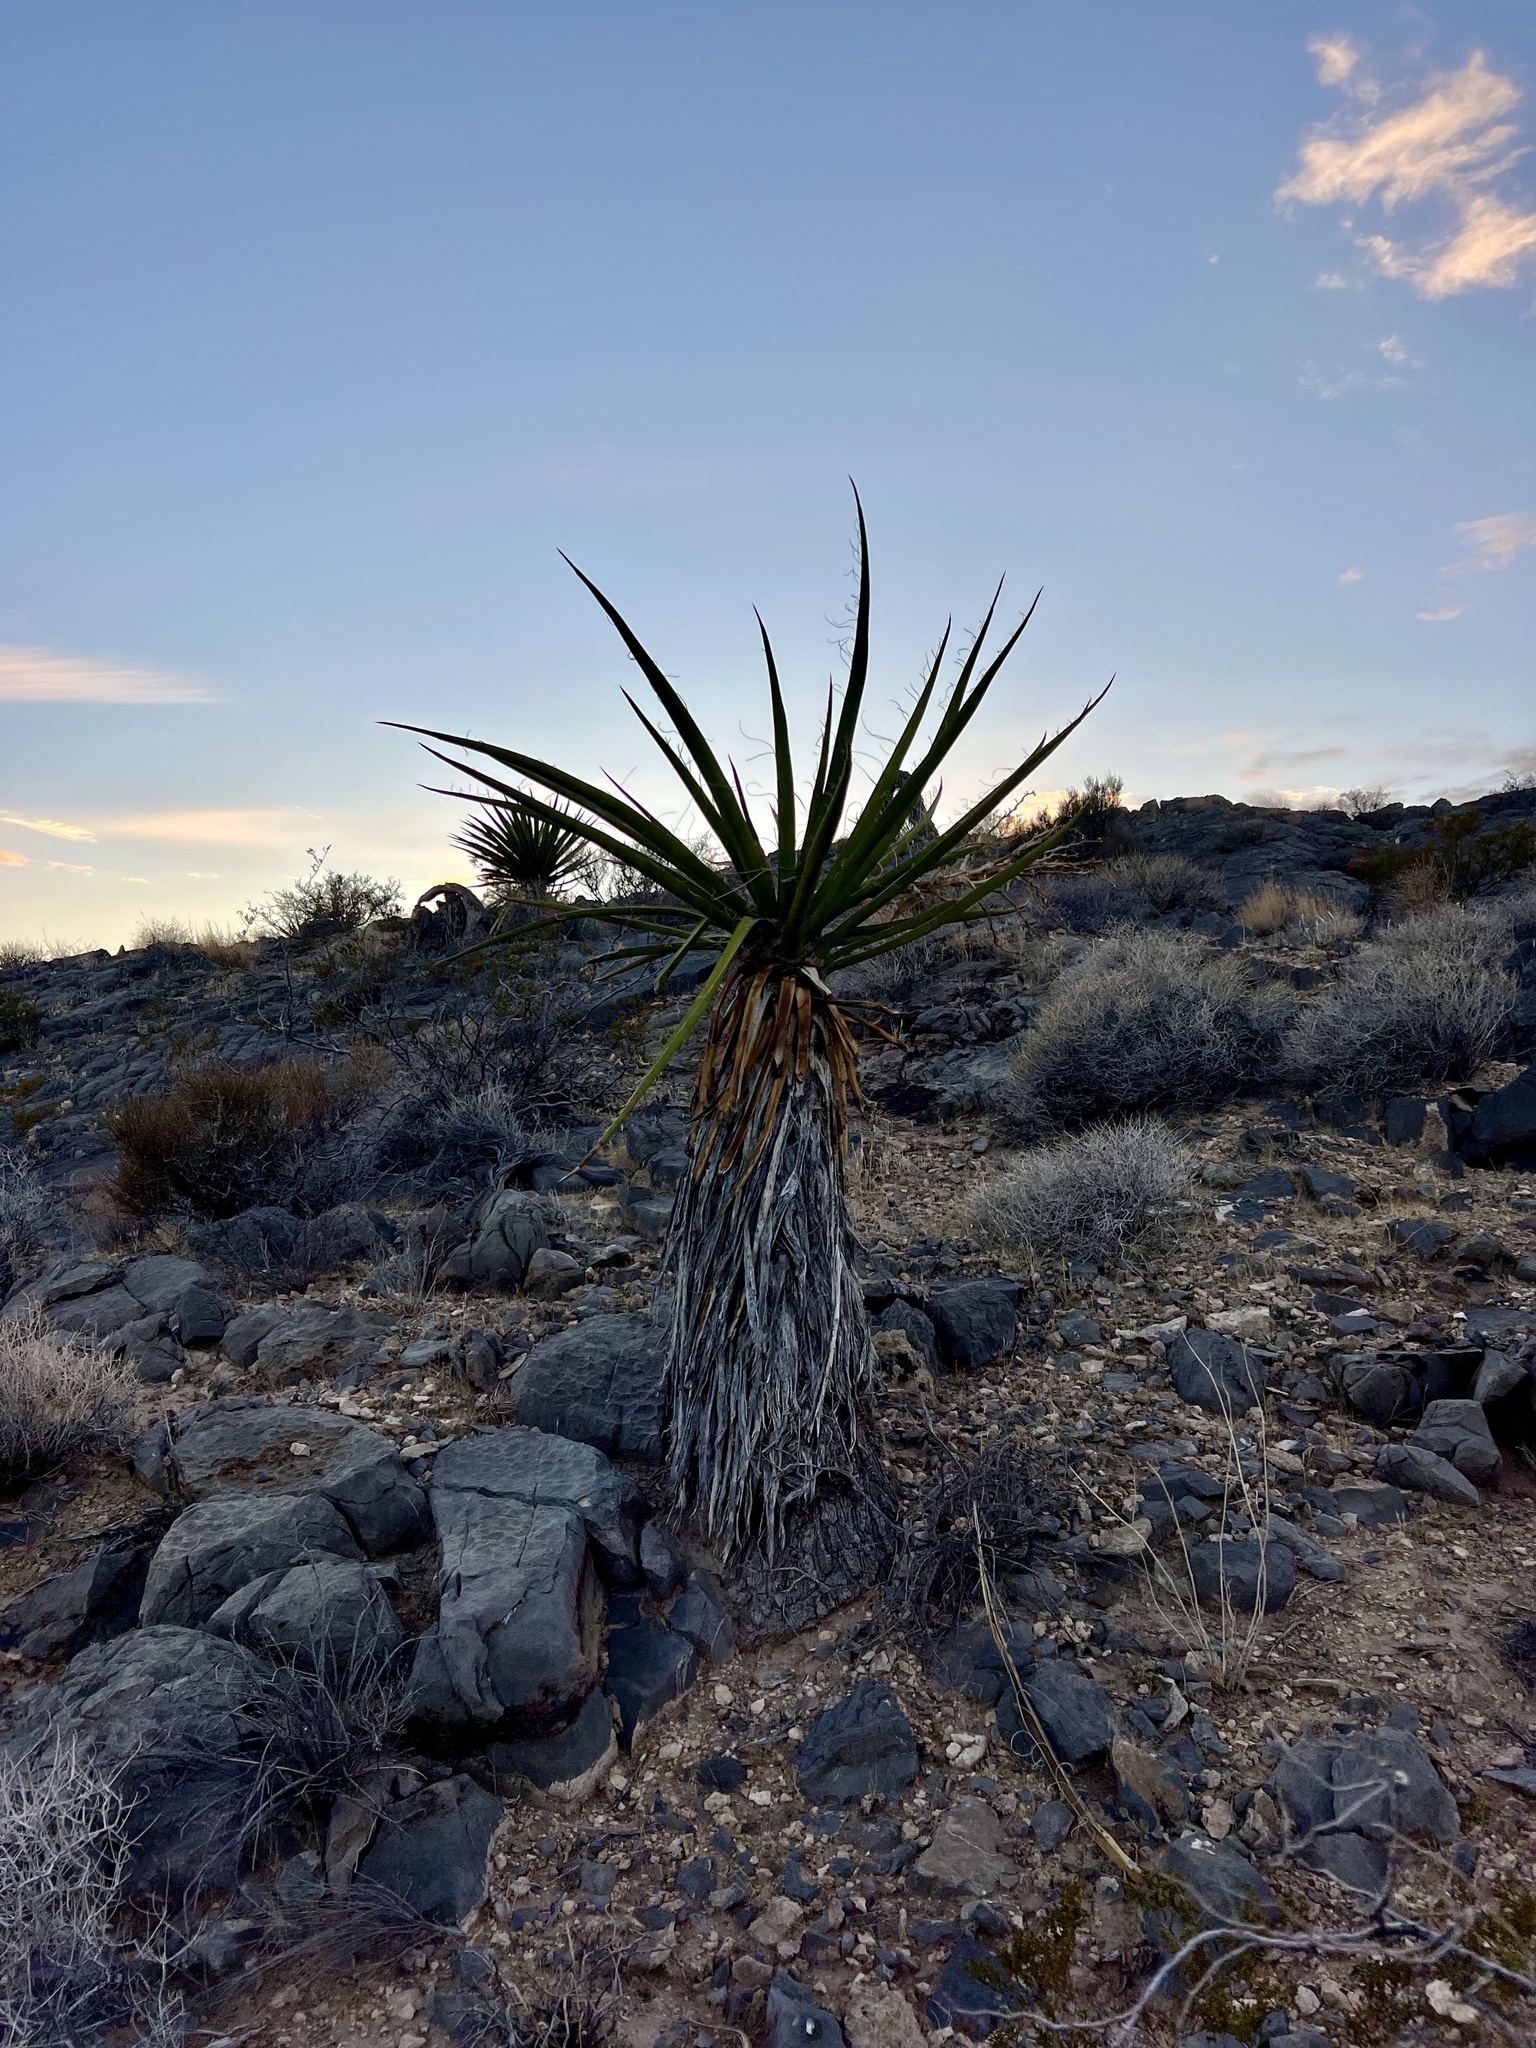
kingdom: Plantae
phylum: Tracheophyta
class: Liliopsida
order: Asparagales
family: Asparagaceae
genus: Yucca
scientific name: Yucca schidigera
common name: Mojave yucca
